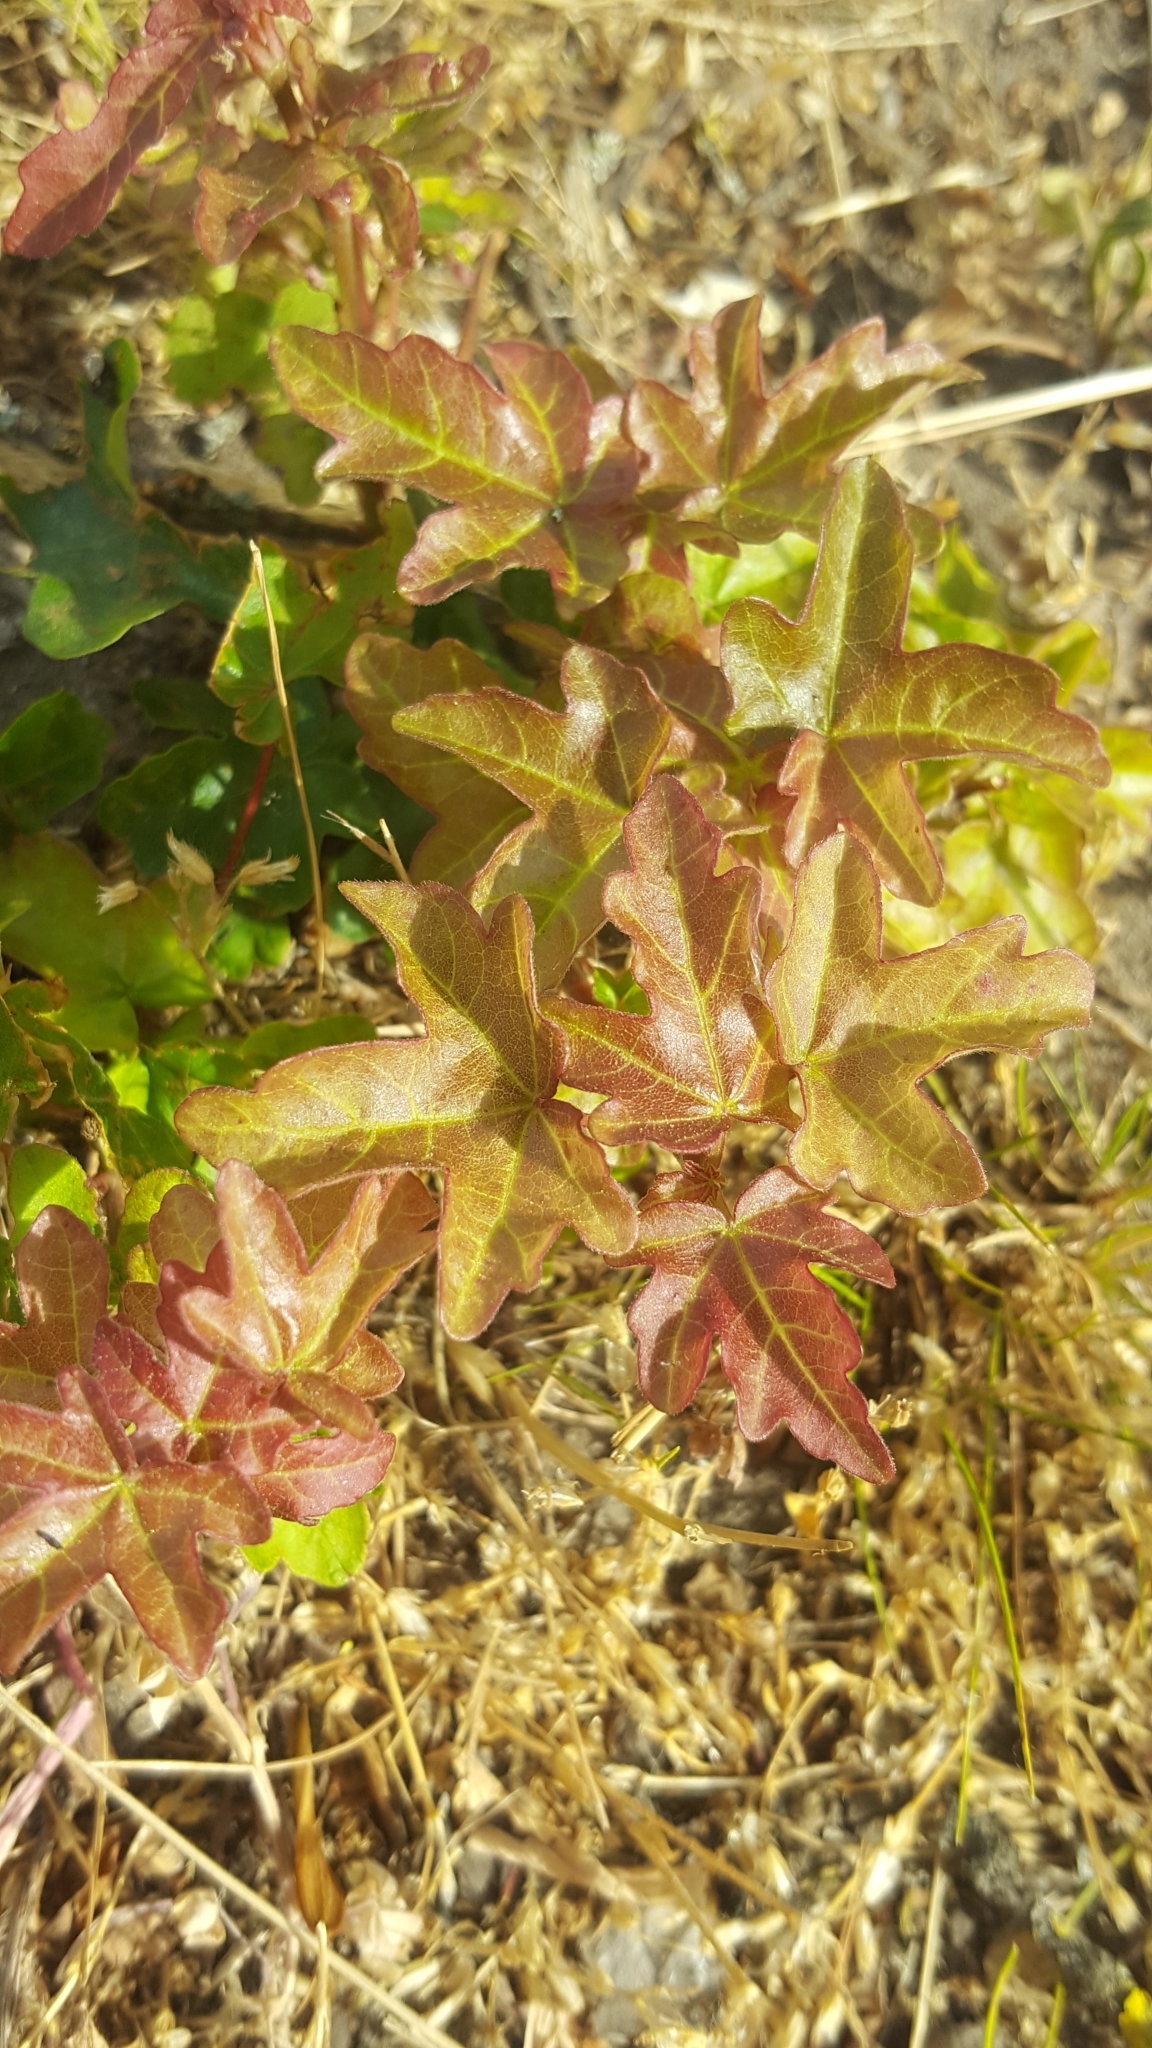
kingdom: Plantae
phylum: Tracheophyta
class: Magnoliopsida
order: Sapindales
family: Sapindaceae
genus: Acer
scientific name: Acer campestre
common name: Field maple
